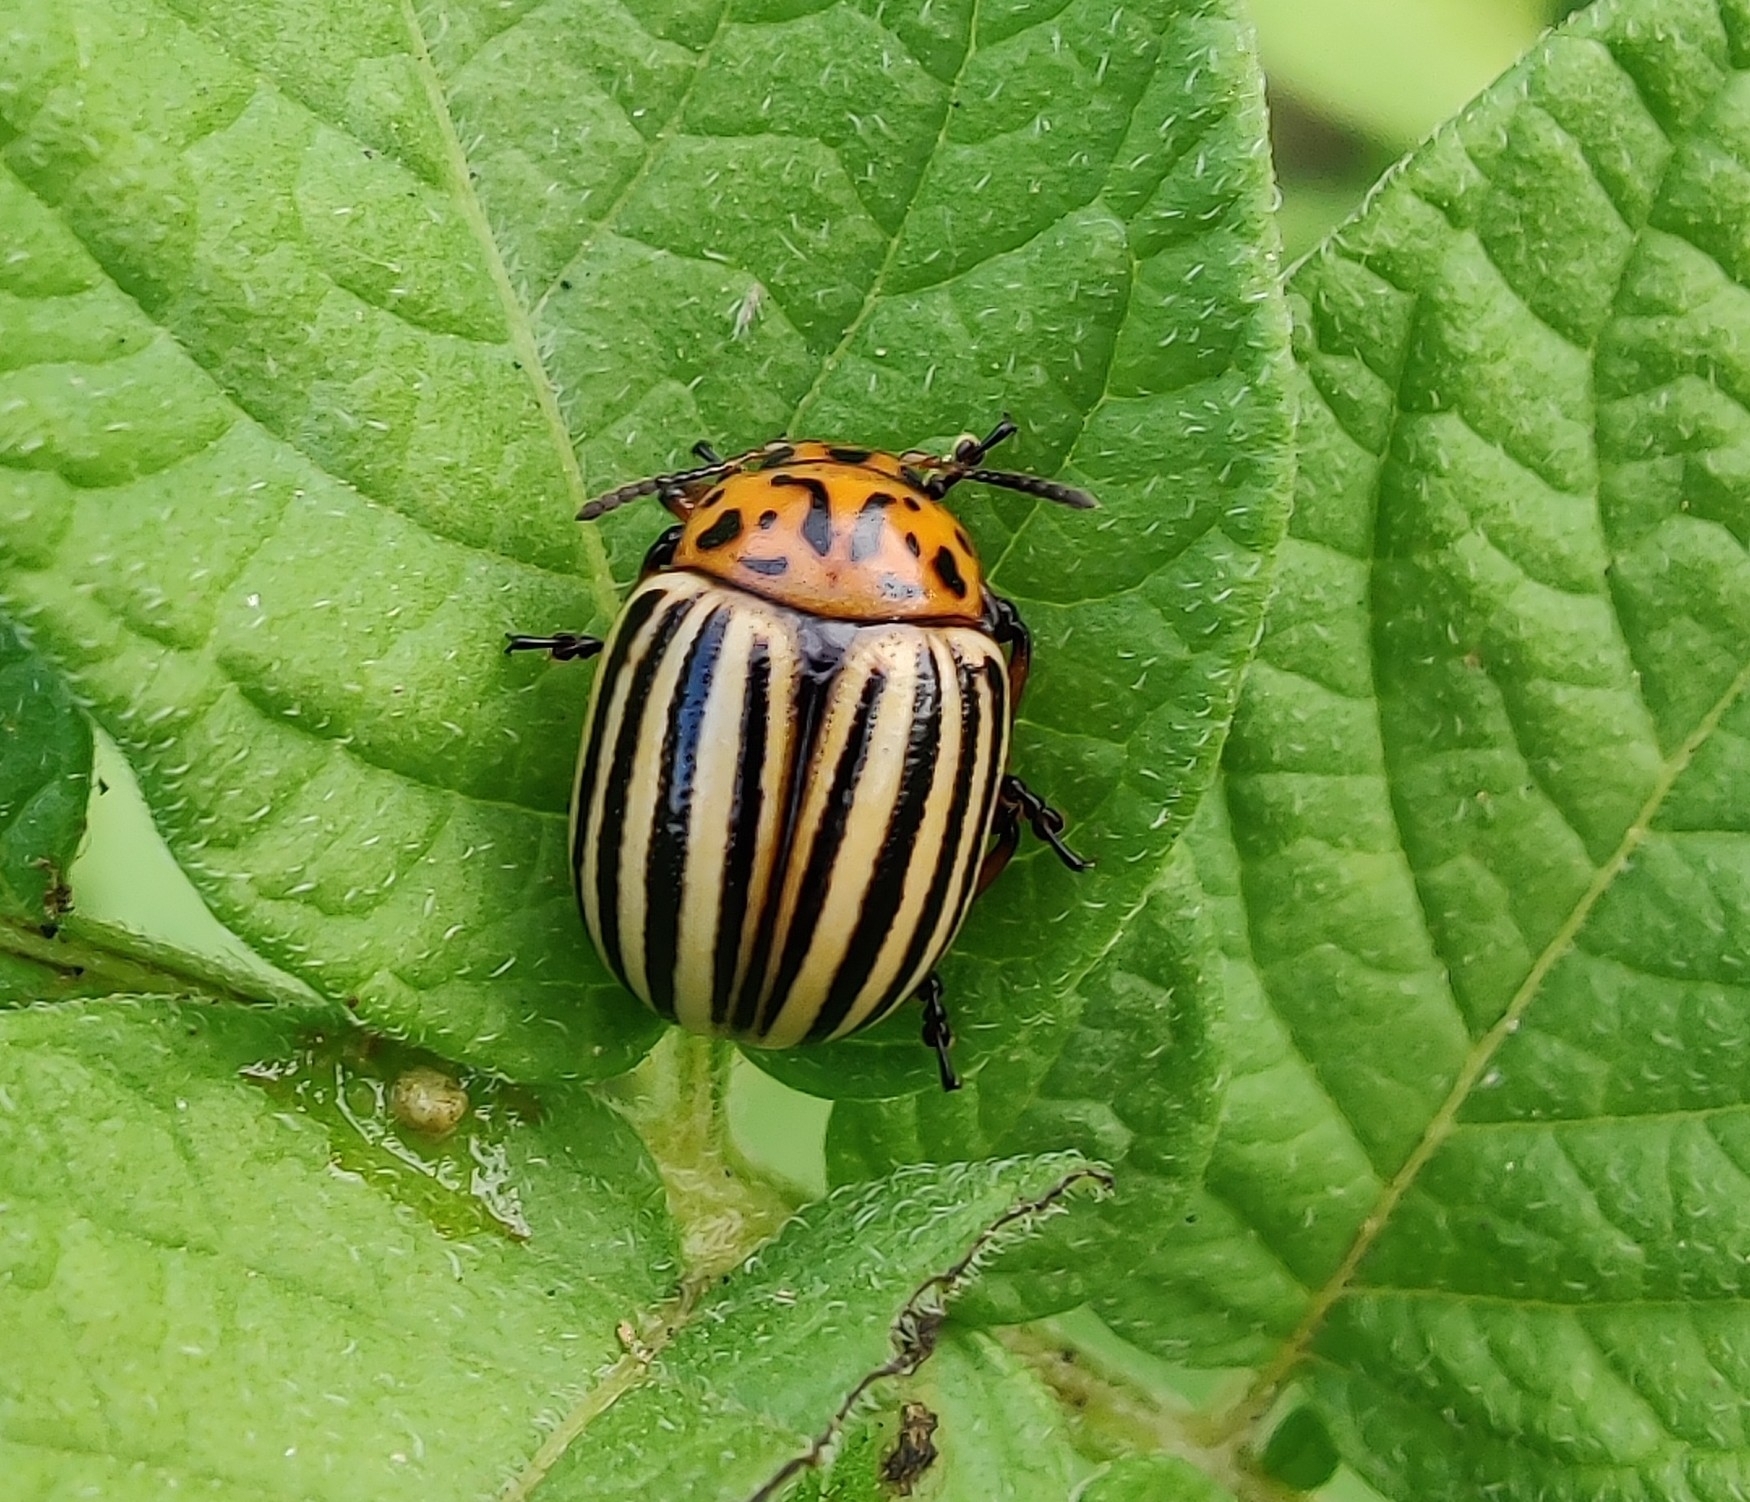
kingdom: Animalia
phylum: Arthropoda
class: Insecta
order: Coleoptera
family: Chrysomelidae
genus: Leptinotarsa
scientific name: Leptinotarsa decemlineata
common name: Colorado potato beetle
